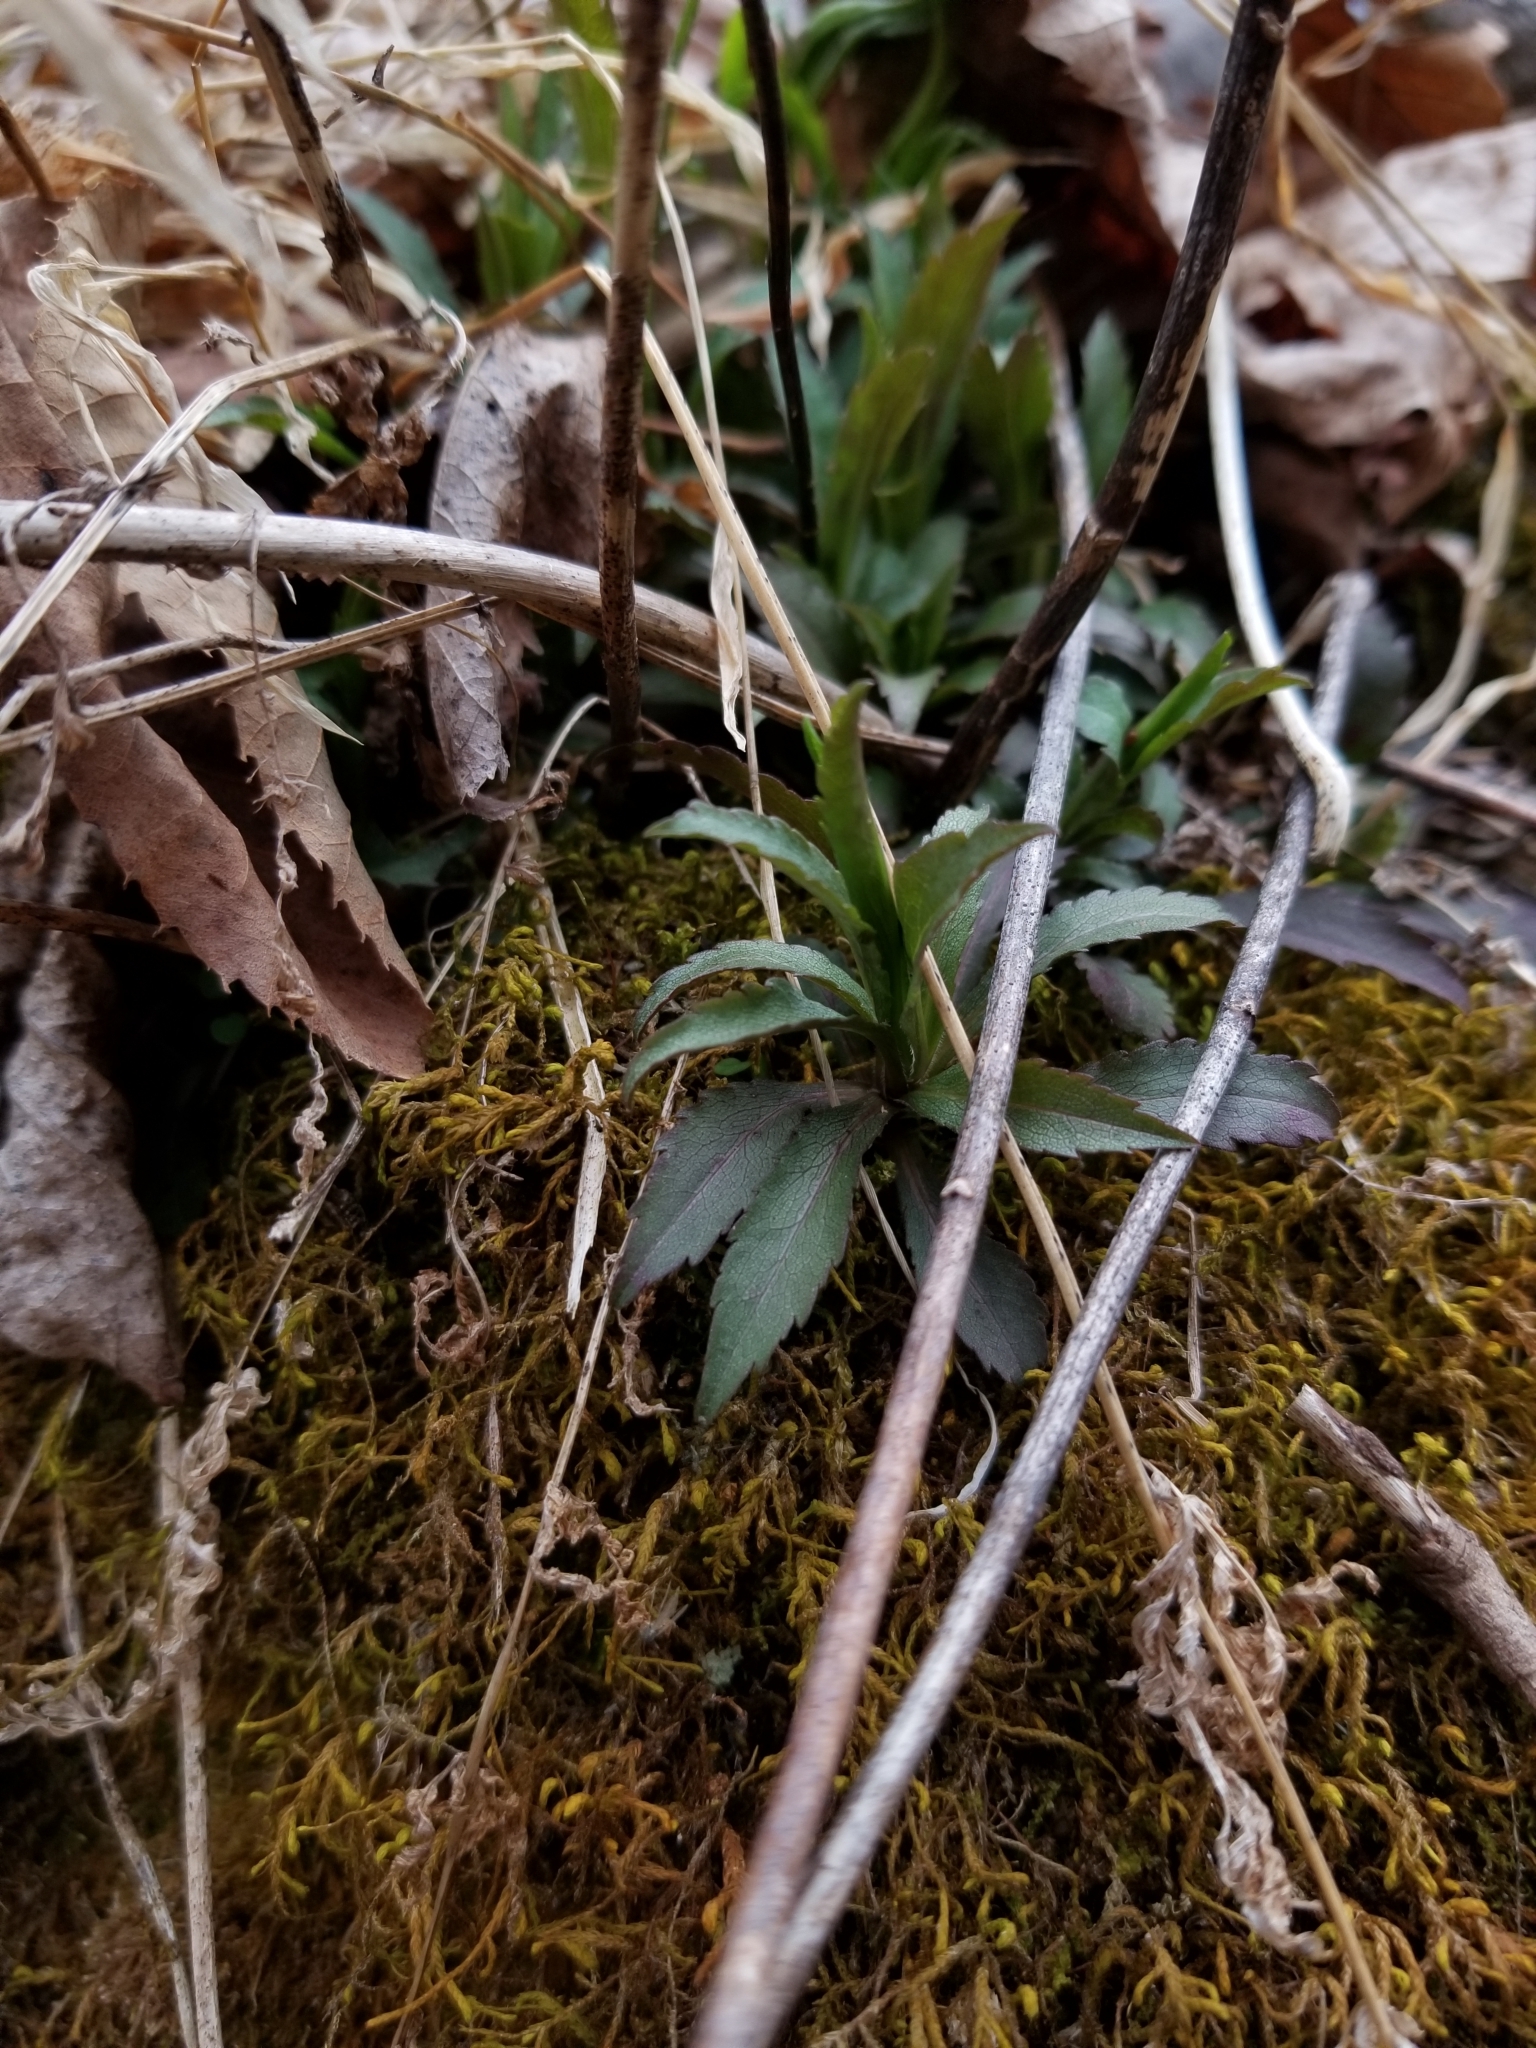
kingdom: Plantae
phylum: Tracheophyta
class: Magnoliopsida
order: Asterales
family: Asteraceae
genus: Solidago
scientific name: Solidago caesia
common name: Woodland goldenrod
